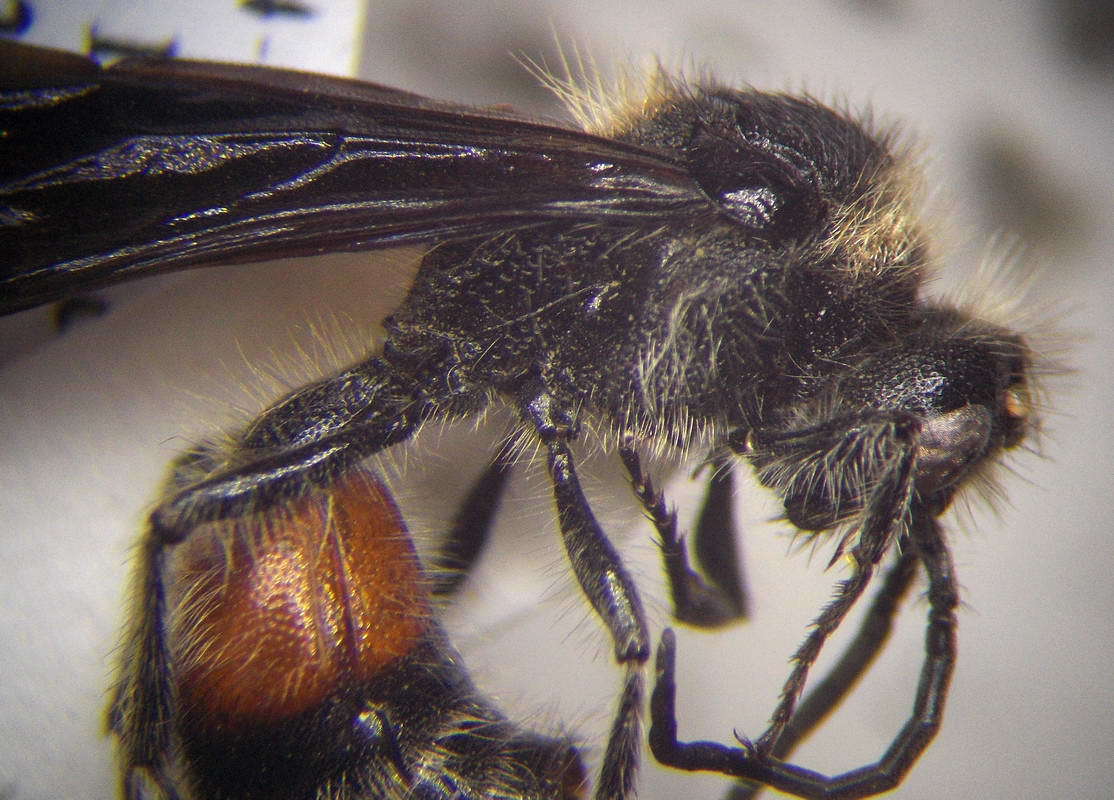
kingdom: Animalia
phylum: Arthropoda
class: Insecta
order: Hymenoptera
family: Mutillidae
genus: Nemka
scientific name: Nemka viduata
